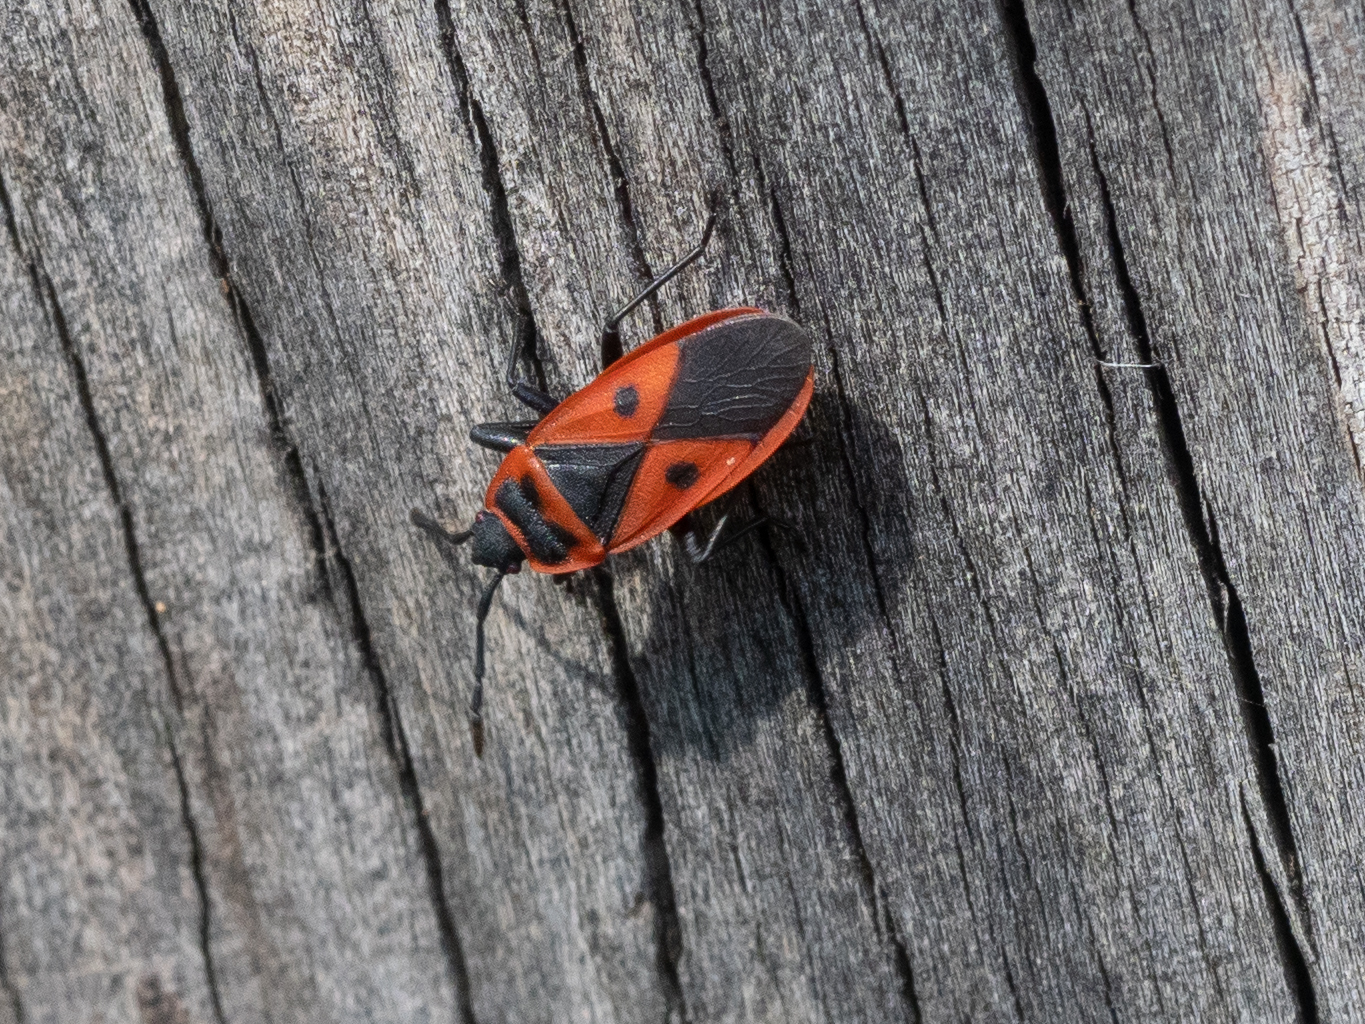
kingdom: Animalia
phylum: Arthropoda
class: Insecta
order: Hemiptera
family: Pyrrhocoridae
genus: Scantius
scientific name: Scantius aegyptius
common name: Red bug
